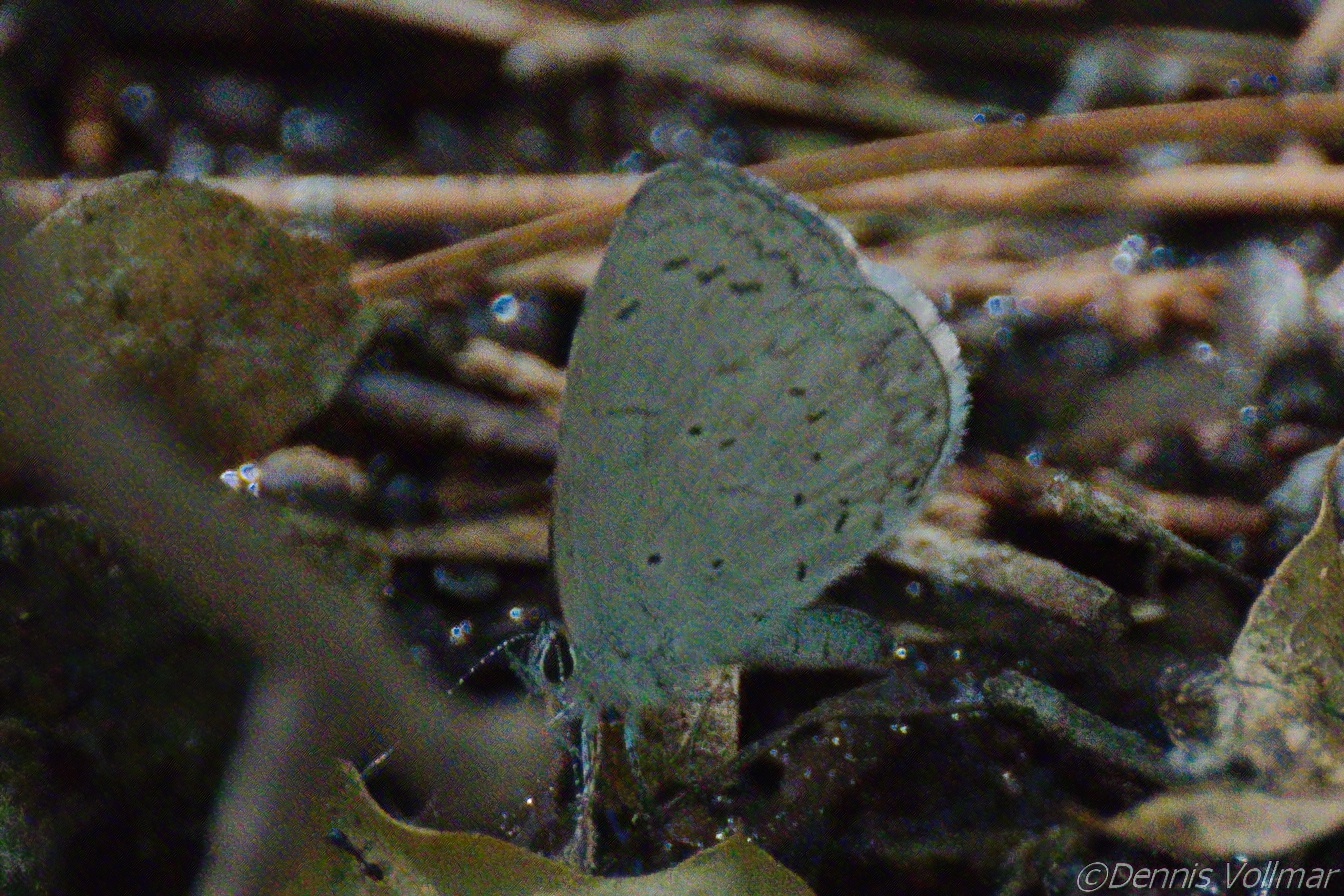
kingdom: Animalia
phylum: Arthropoda
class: Insecta
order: Lepidoptera
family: Lycaenidae
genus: Celastrina
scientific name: Celastrina ladon
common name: Spring azure
